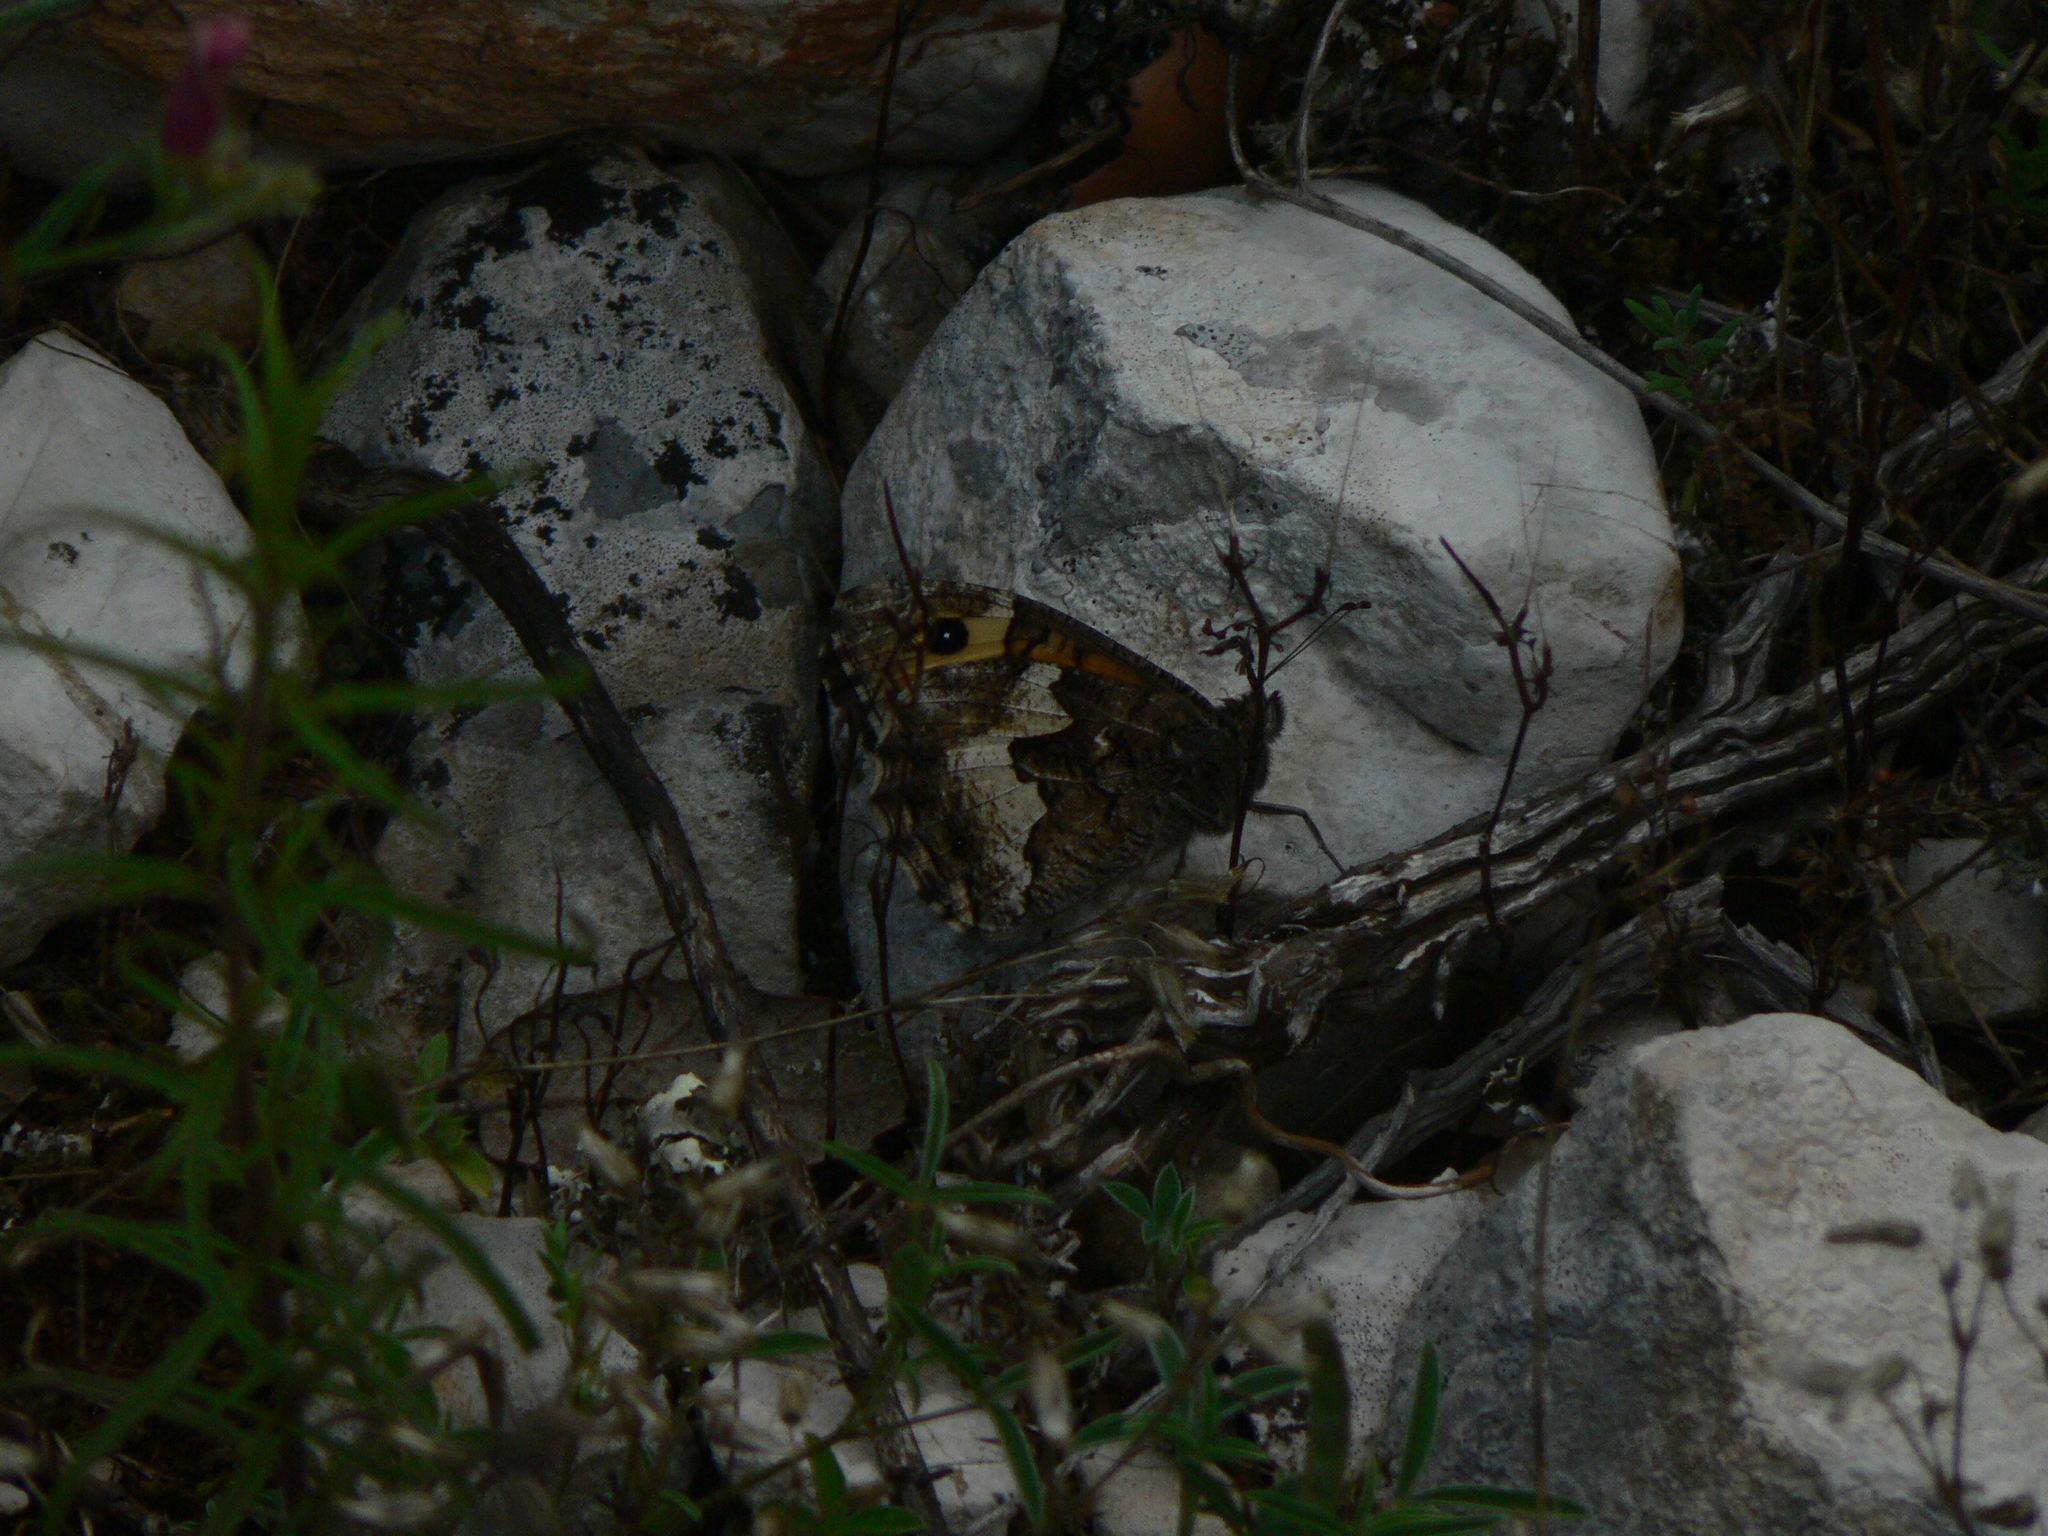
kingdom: Animalia
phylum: Arthropoda
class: Insecta
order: Lepidoptera
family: Nymphalidae
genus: Hipparchia
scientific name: Hipparchia semele
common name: Grayling
